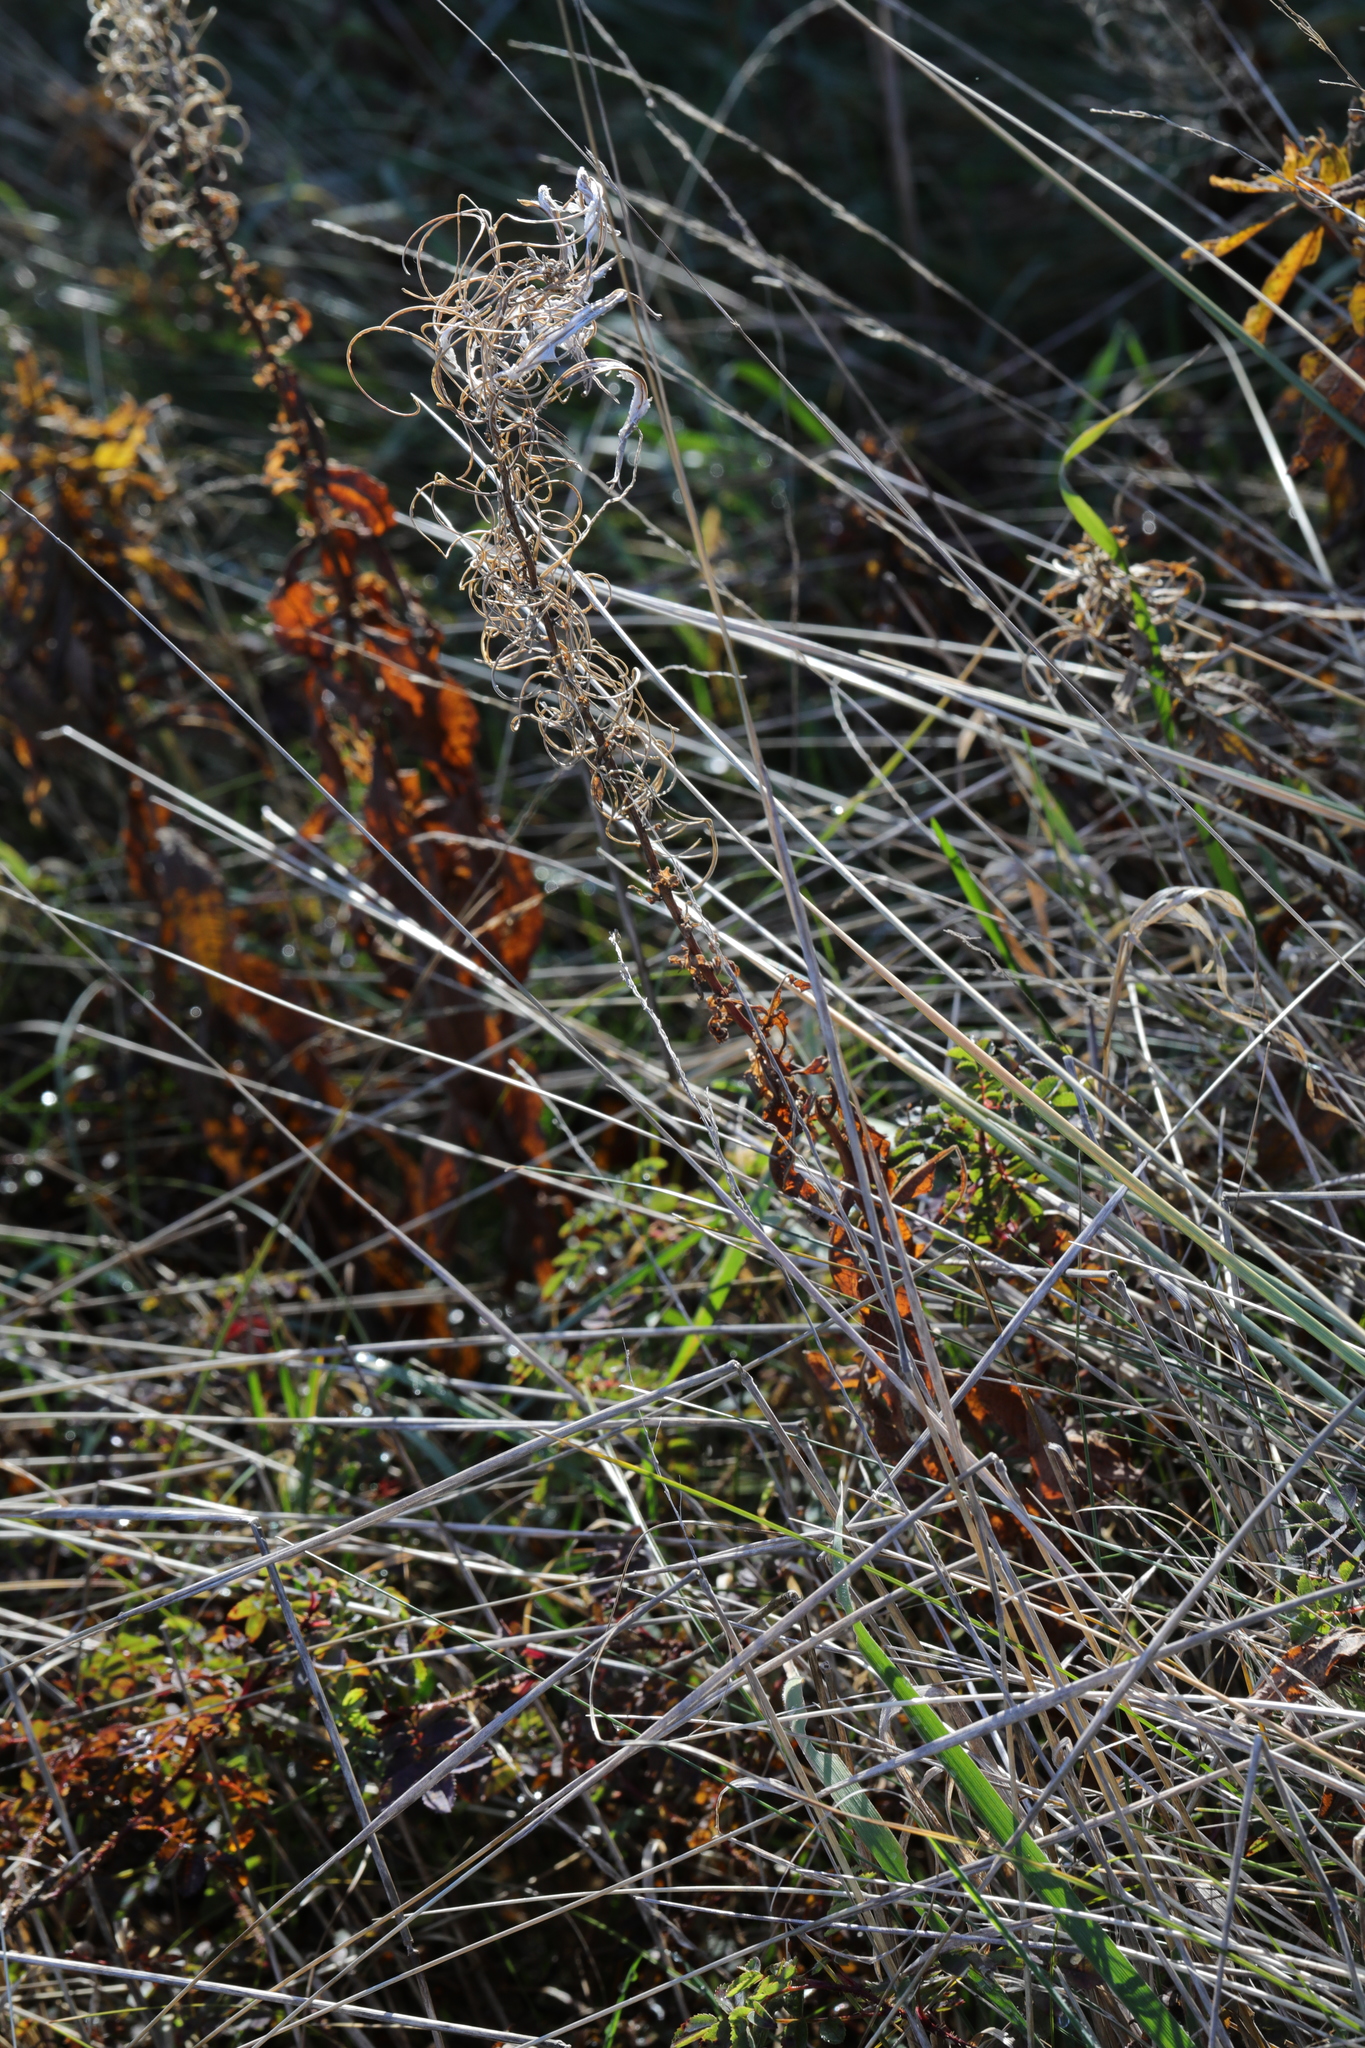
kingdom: Plantae
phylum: Tracheophyta
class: Magnoliopsida
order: Myrtales
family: Onagraceae
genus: Chamaenerion
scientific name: Chamaenerion angustifolium
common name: Fireweed
